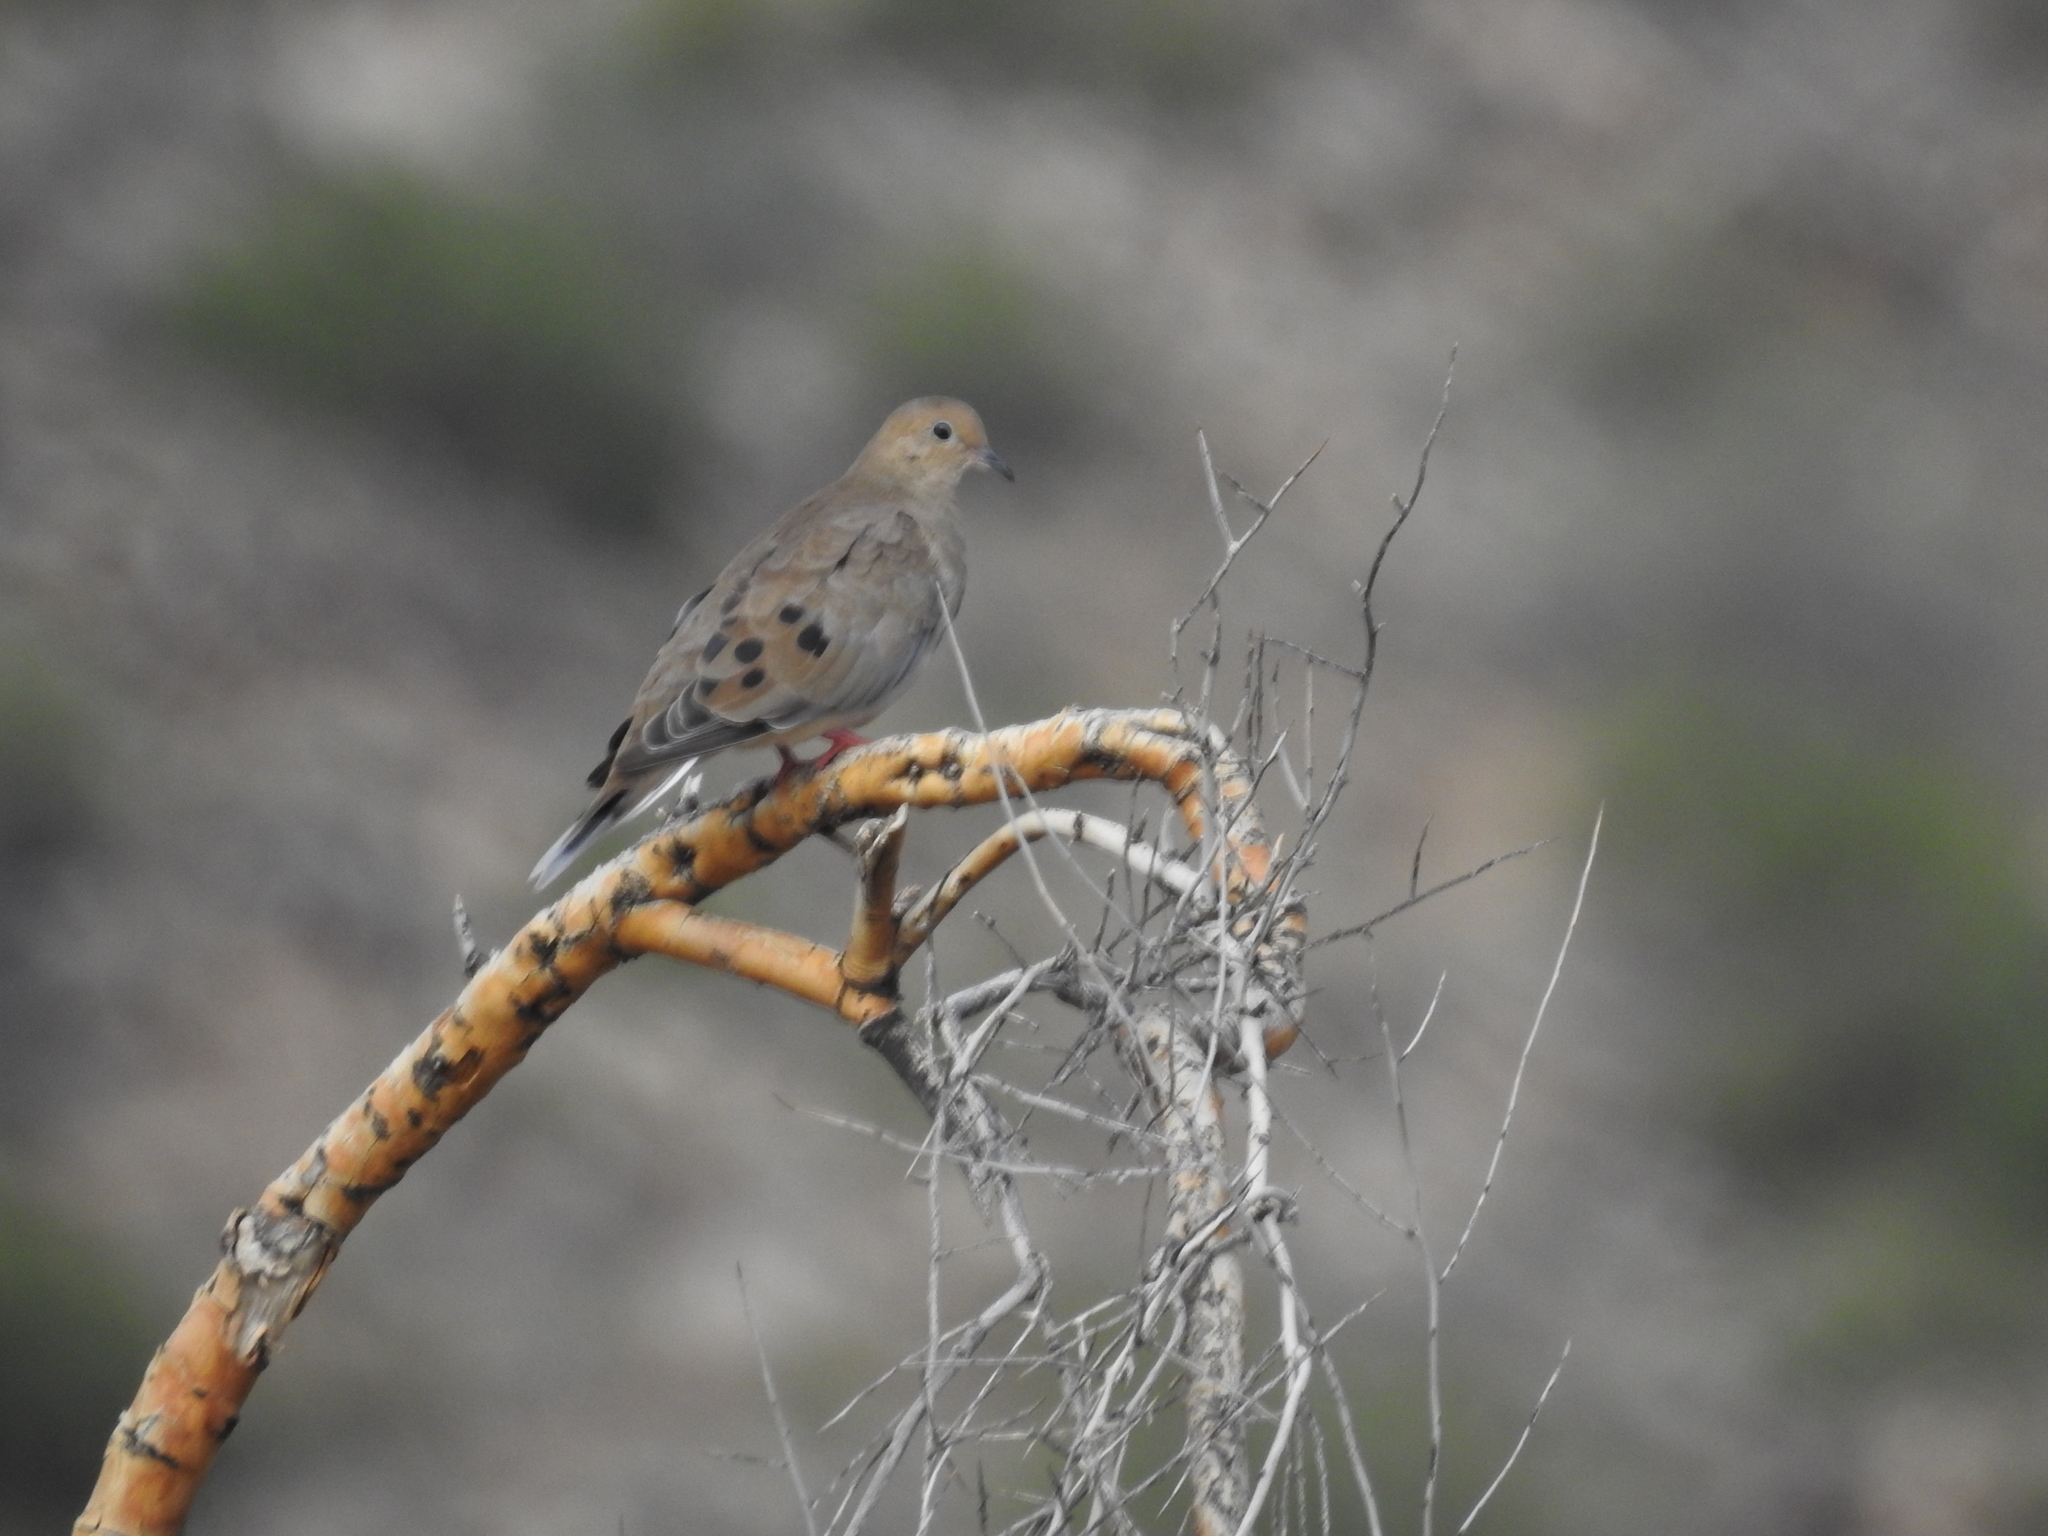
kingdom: Animalia
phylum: Chordata
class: Aves
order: Columbiformes
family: Columbidae
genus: Zenaida
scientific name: Zenaida macroura
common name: Mourning dove
